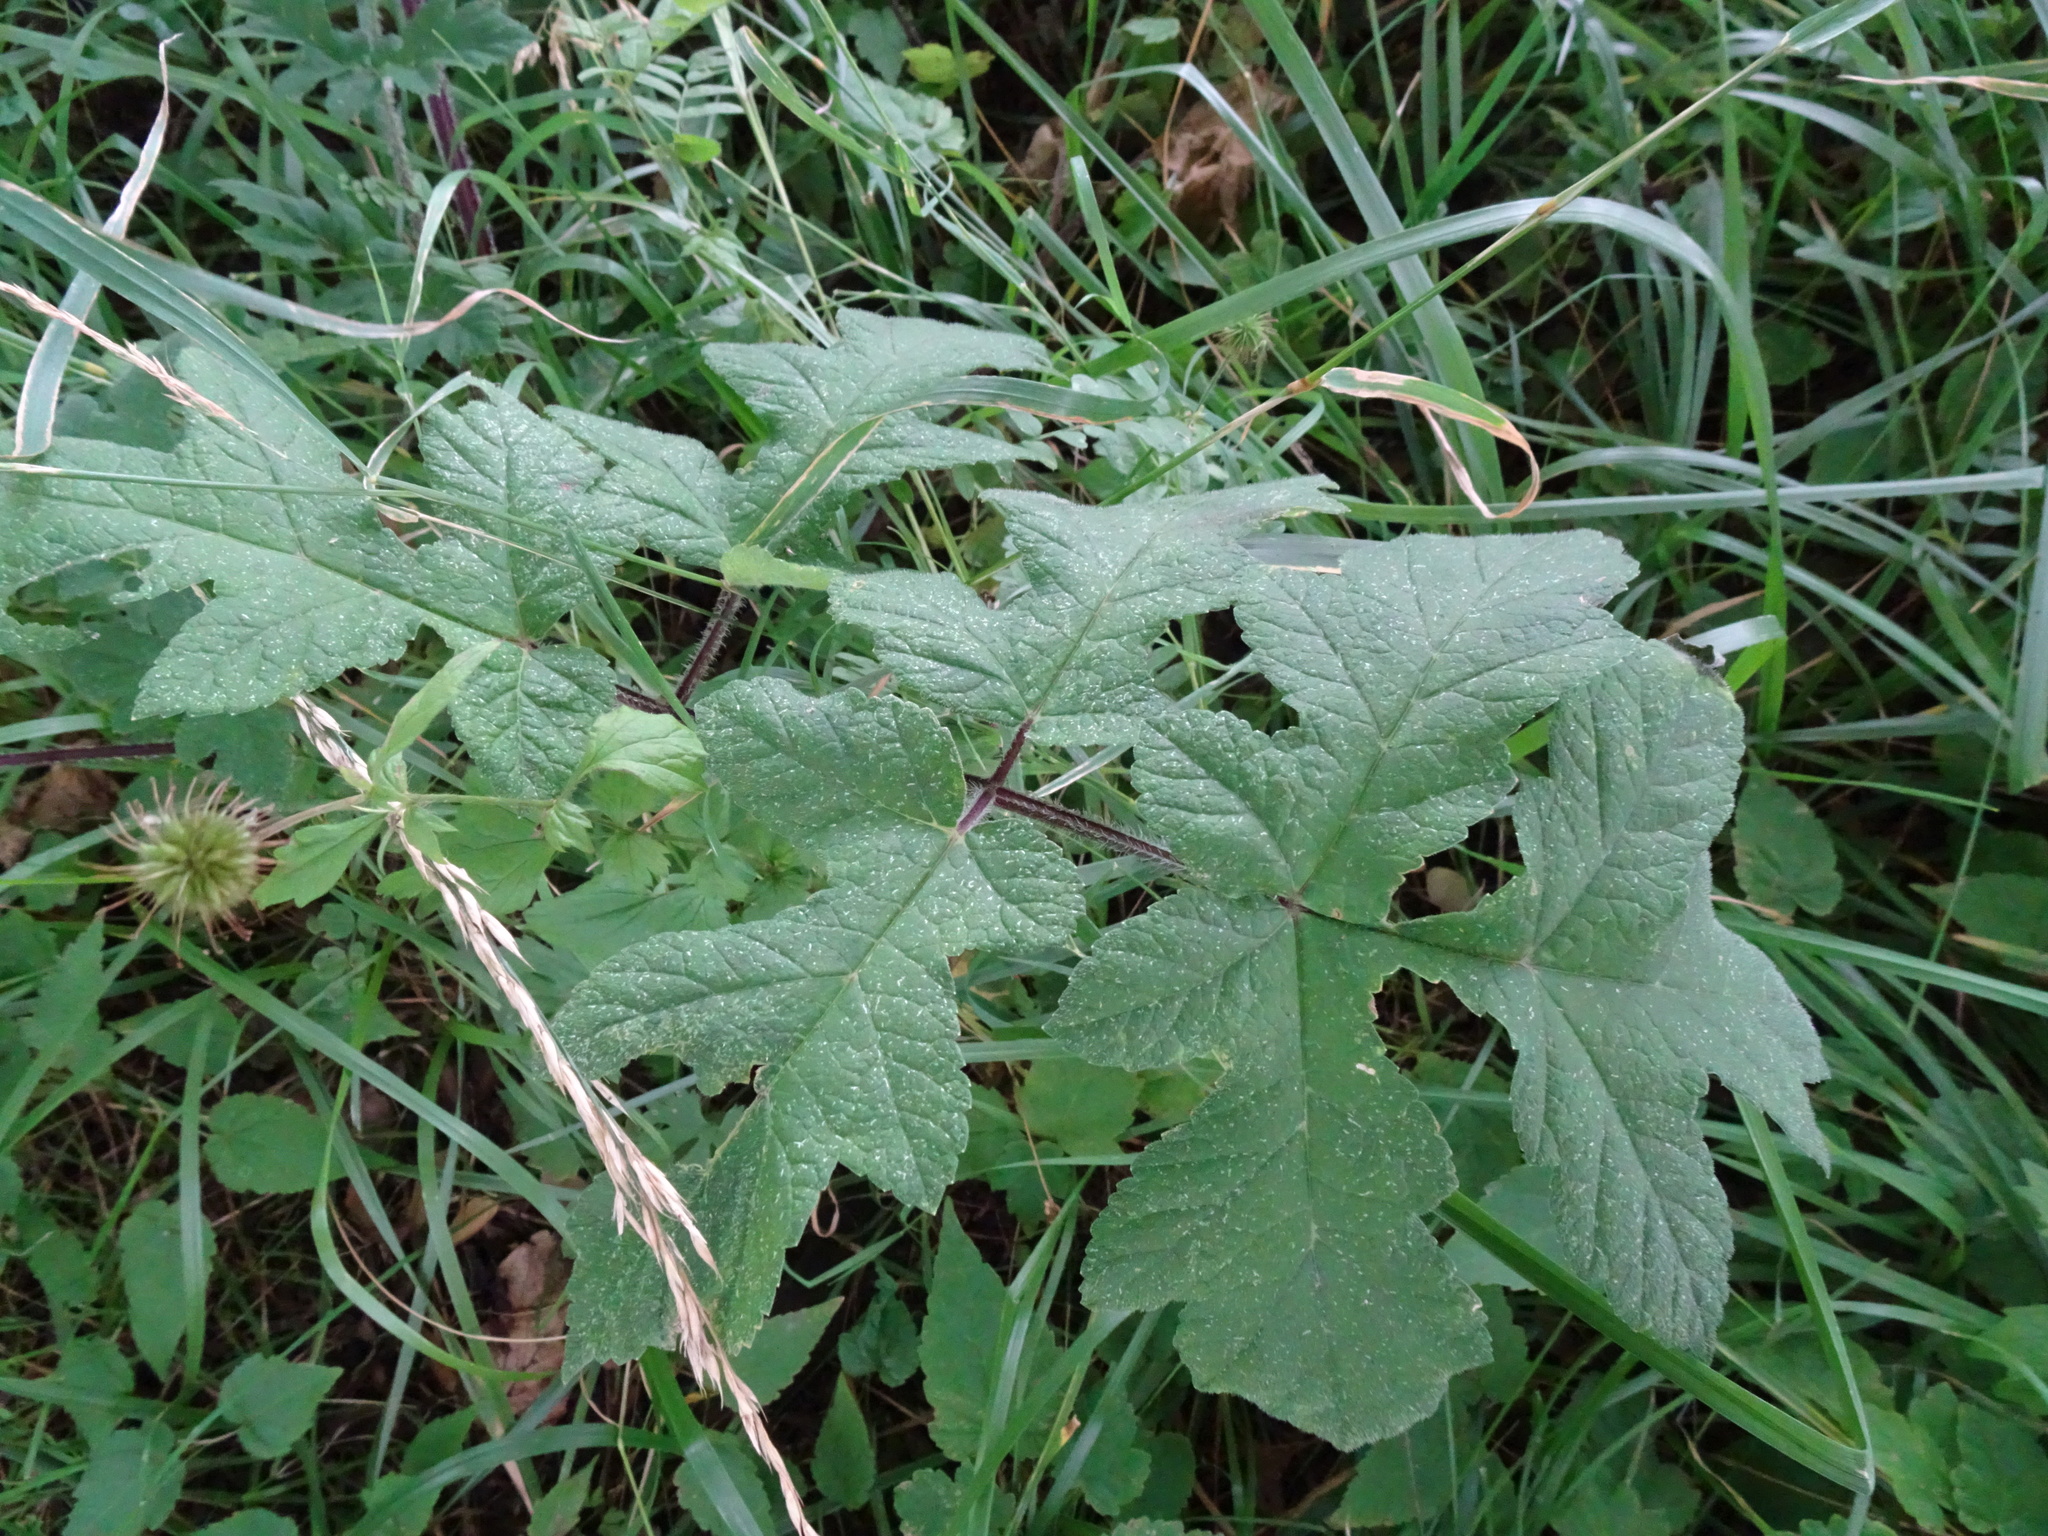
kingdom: Plantae
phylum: Tracheophyta
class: Magnoliopsida
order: Apiales
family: Apiaceae
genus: Heracleum
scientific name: Heracleum sphondylium
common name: Hogweed
